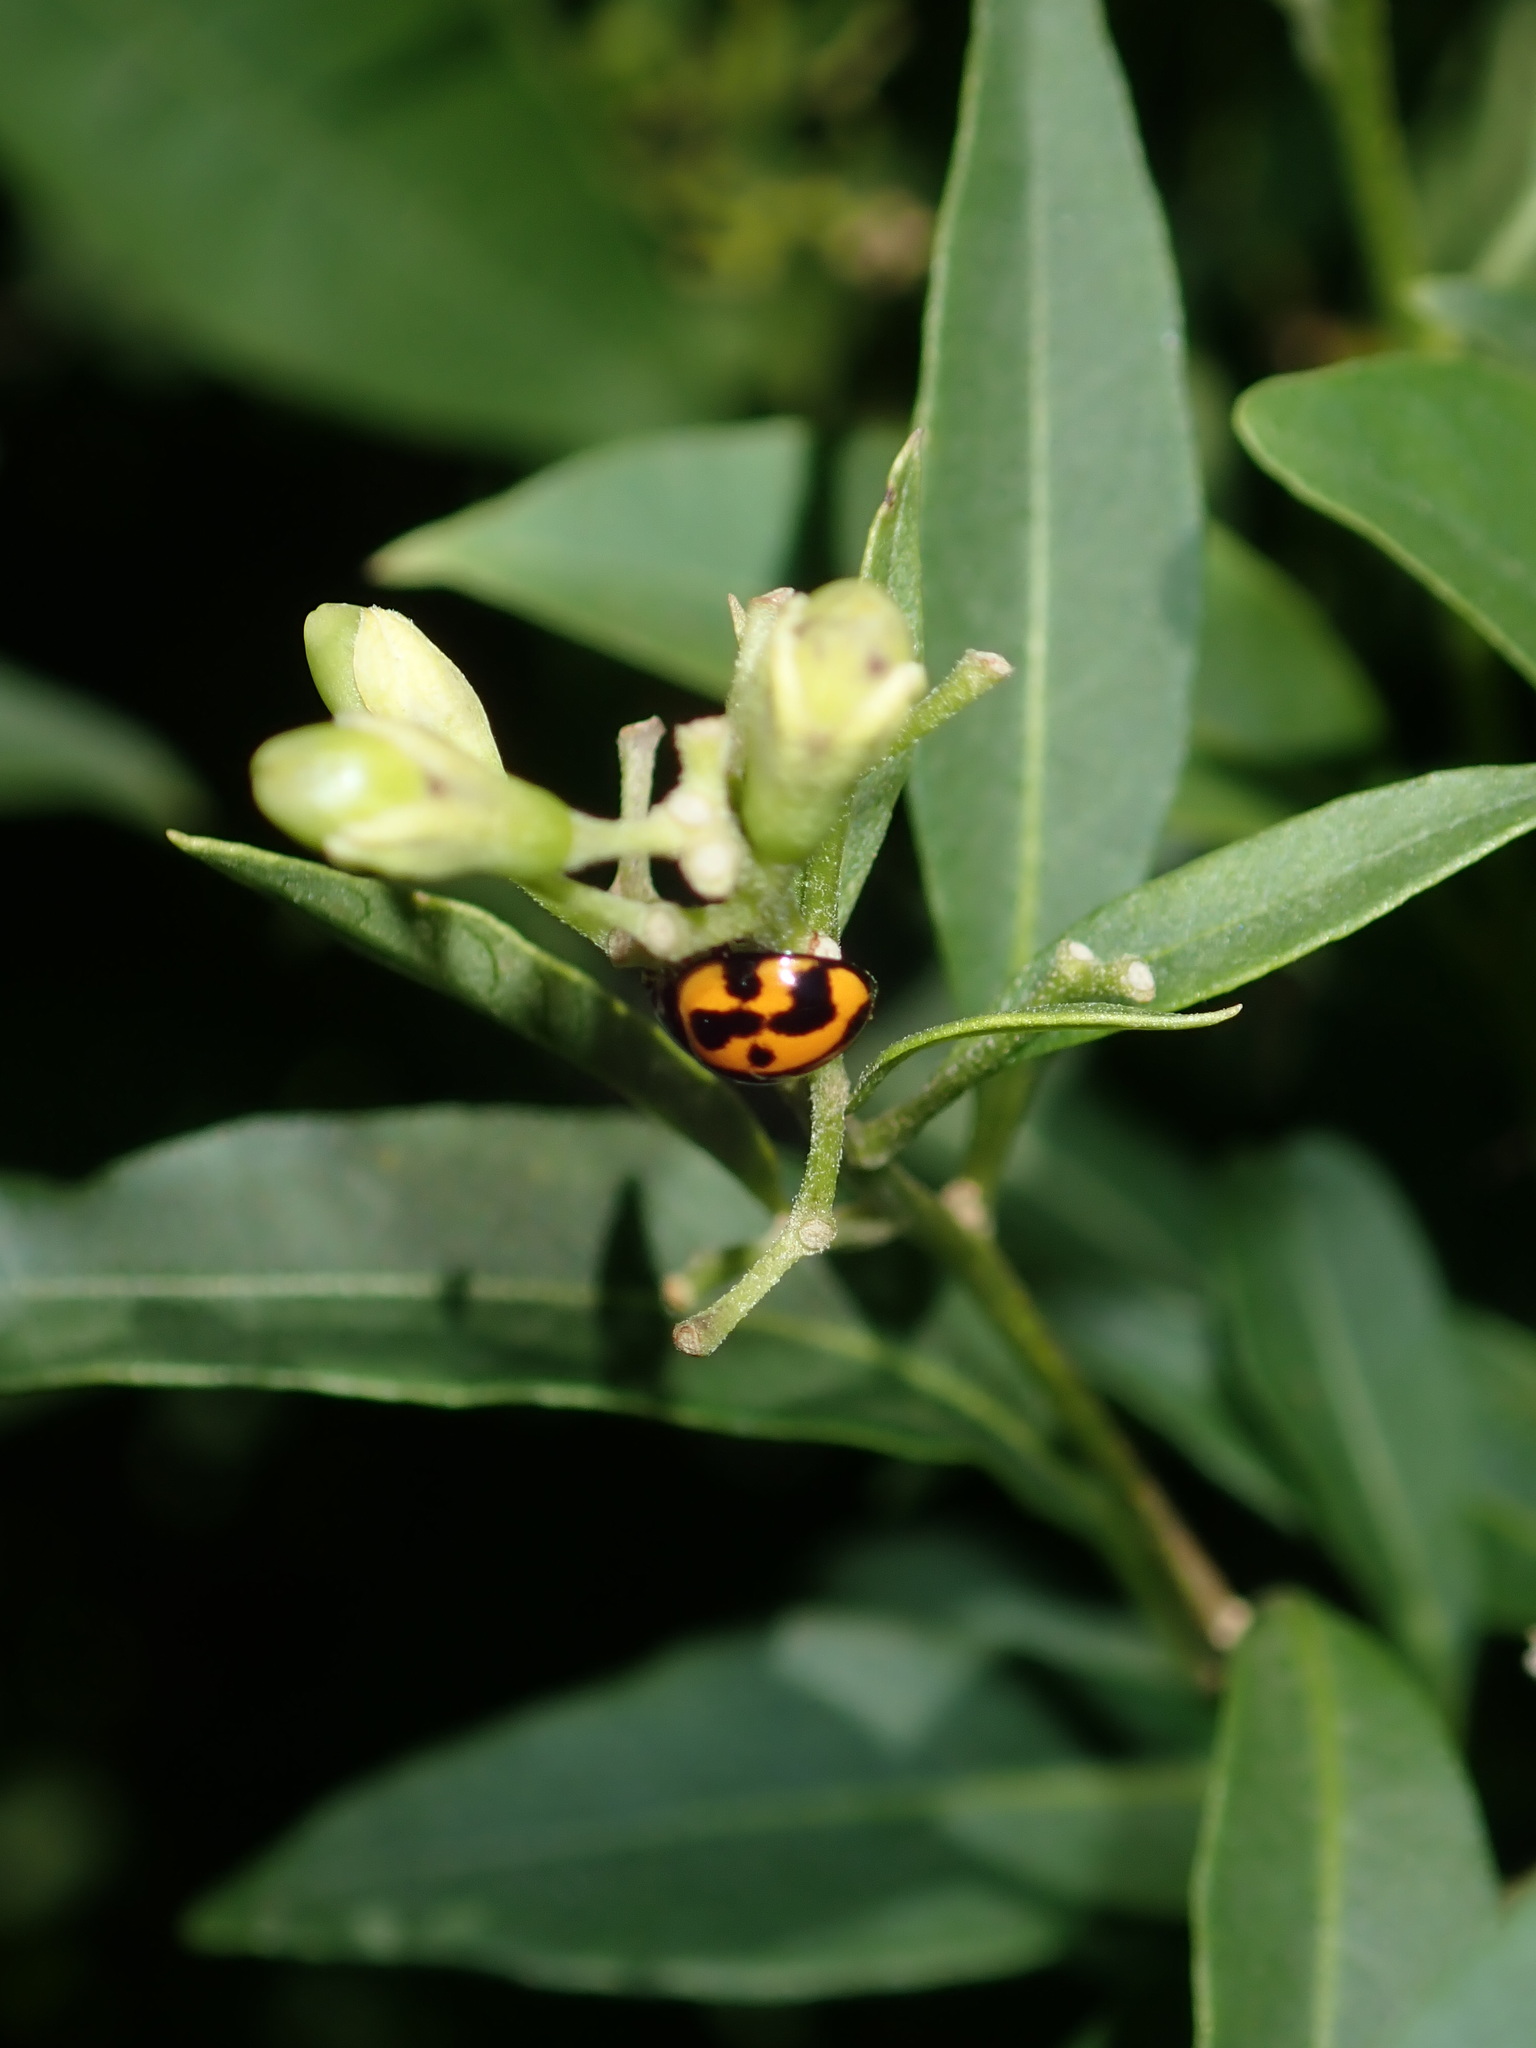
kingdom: Animalia
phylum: Arthropoda
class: Insecta
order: Coleoptera
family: Coccinellidae
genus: Coelophora
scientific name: Coelophora inaequalis
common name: Common australian lady beetle
